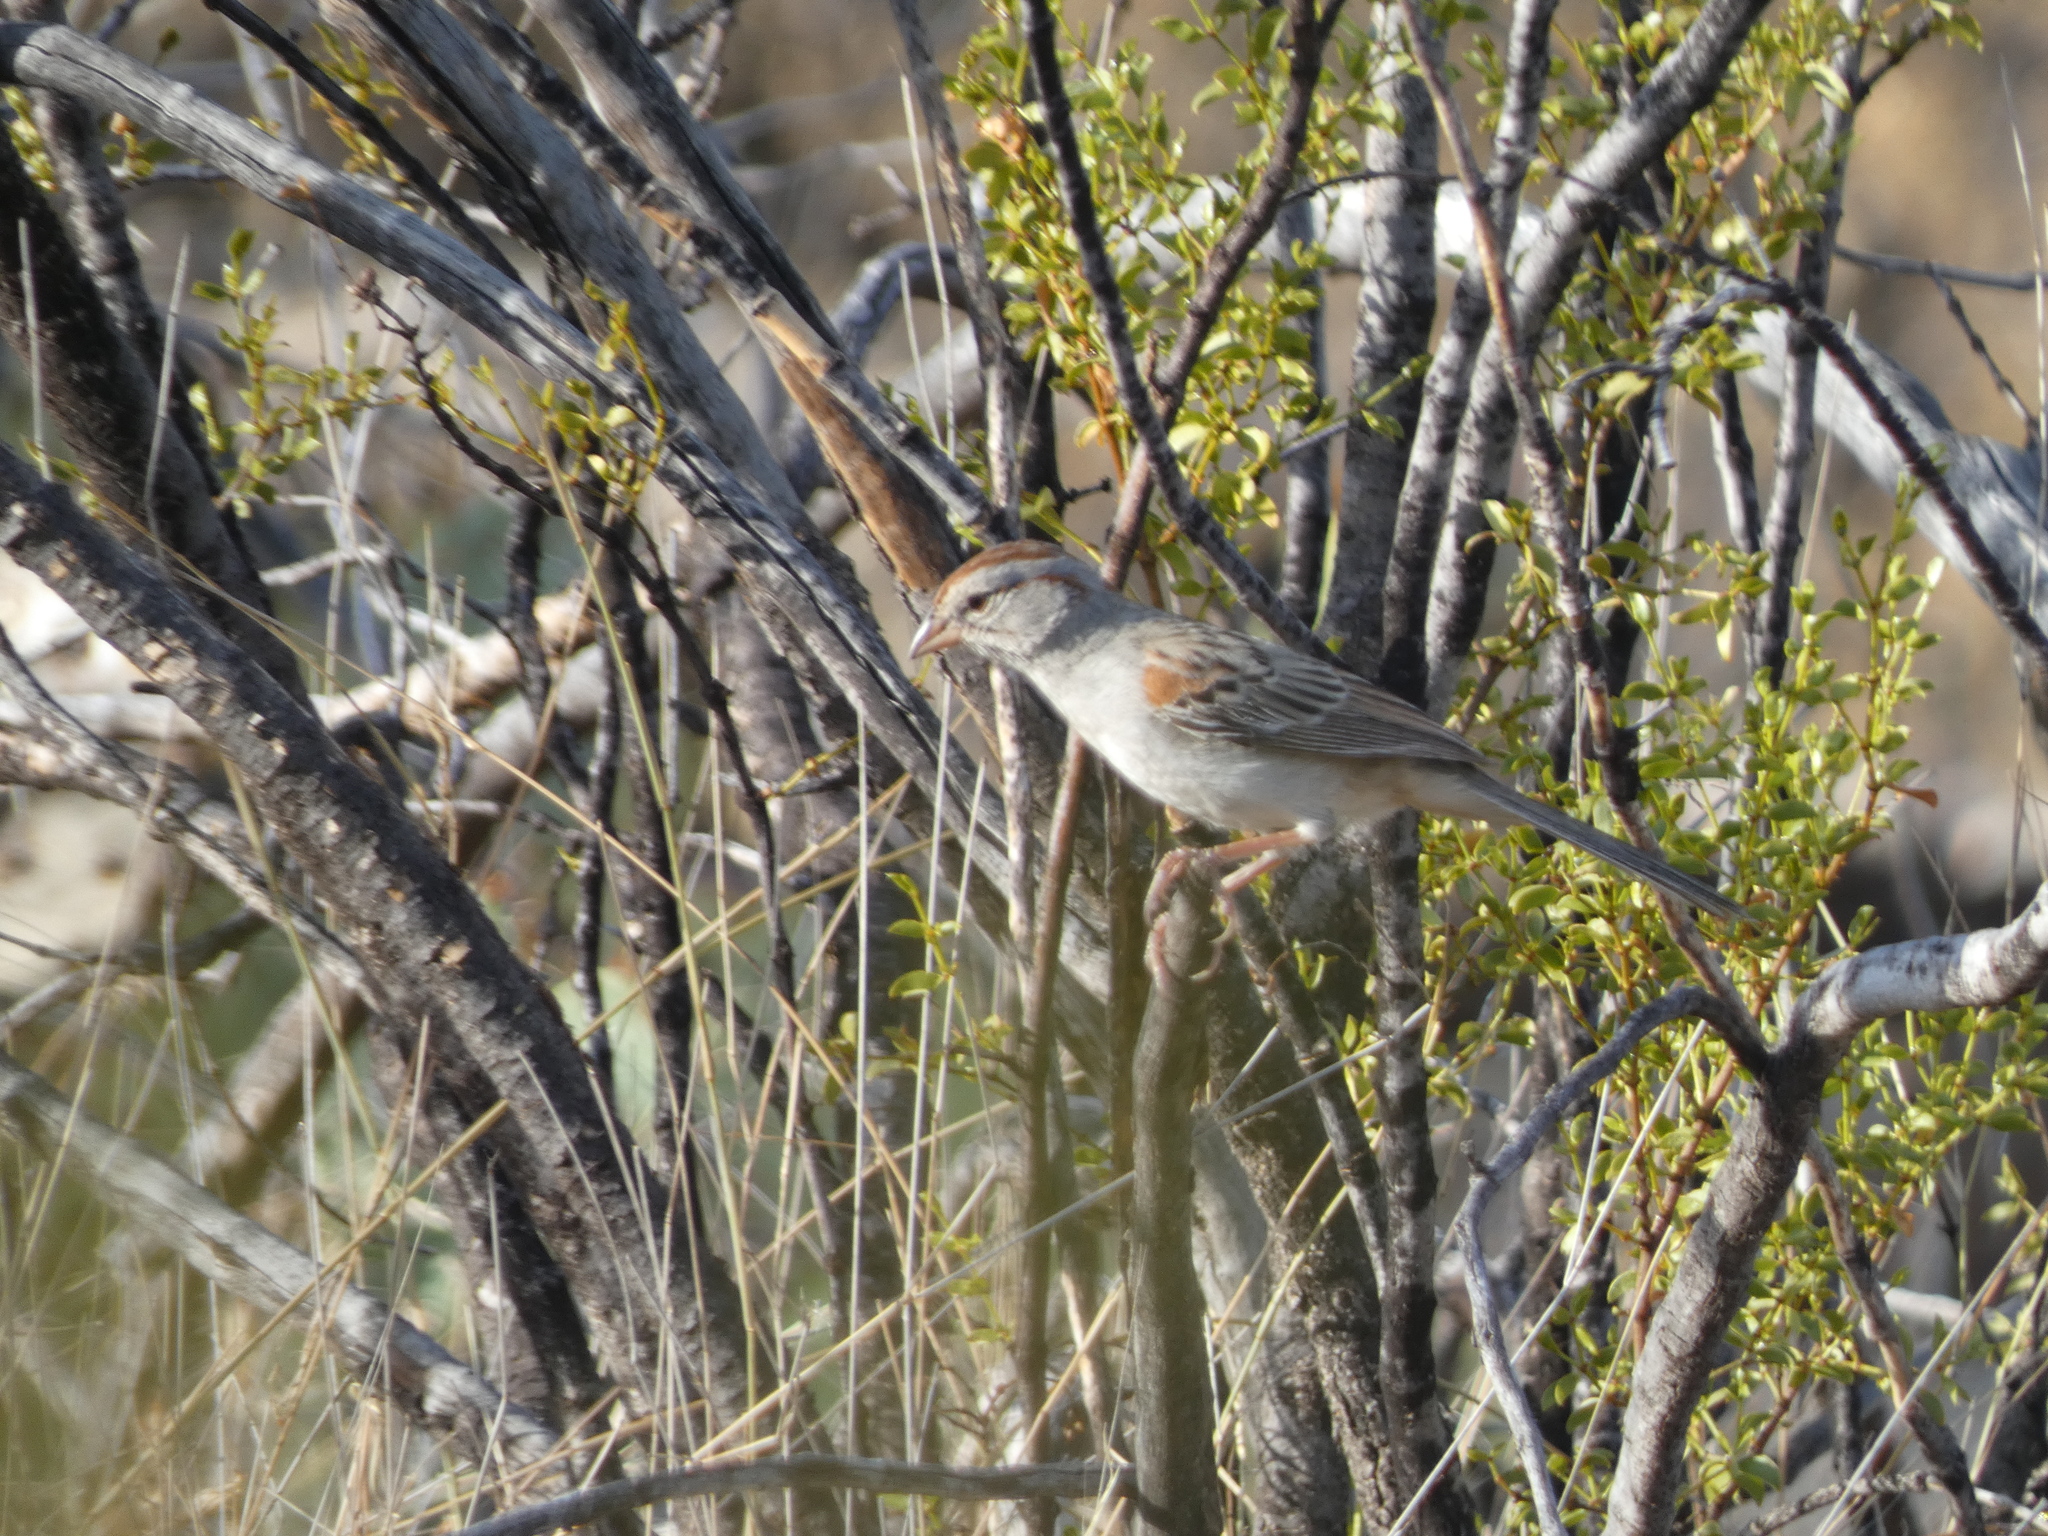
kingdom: Animalia
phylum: Chordata
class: Aves
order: Passeriformes
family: Passerellidae
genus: Peucaea
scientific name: Peucaea carpalis
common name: Rufous-winged sparrow
